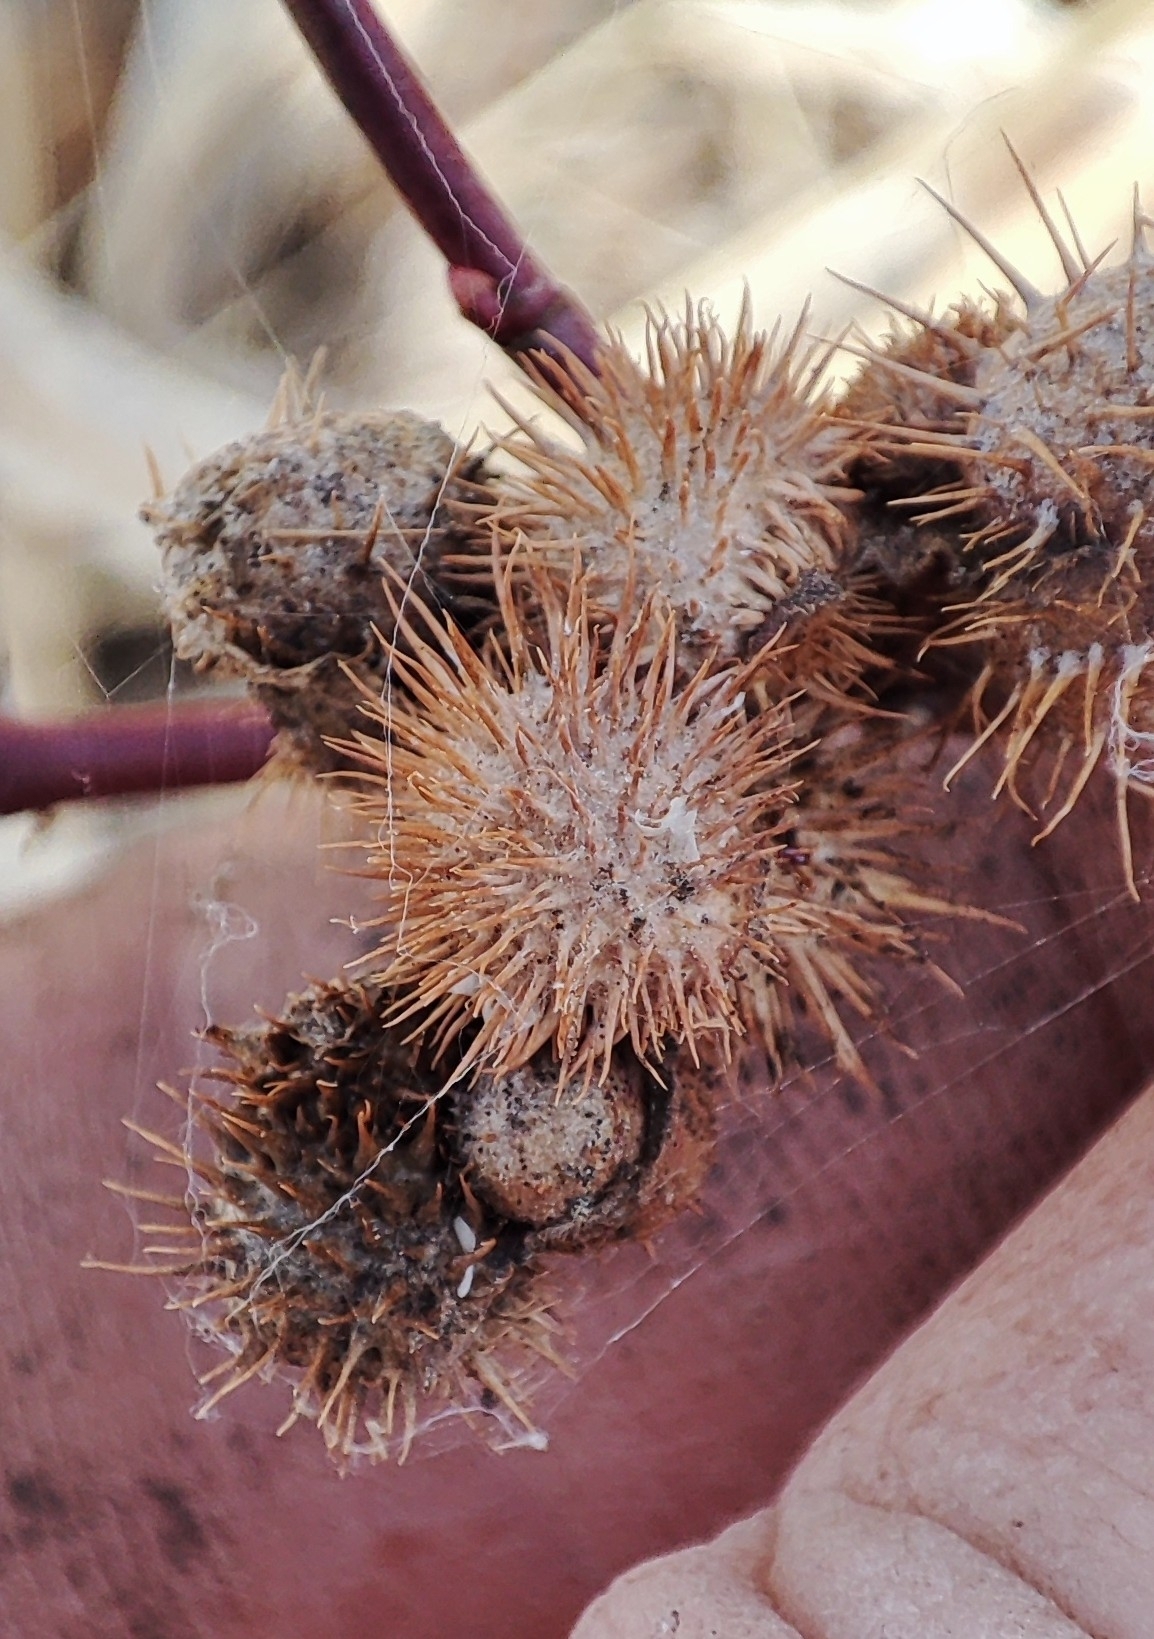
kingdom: Animalia
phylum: Arthropoda
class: Insecta
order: Hymenoptera
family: Cynipidae
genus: Diplolepis
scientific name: Diplolepis mayri
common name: Gall wasp
